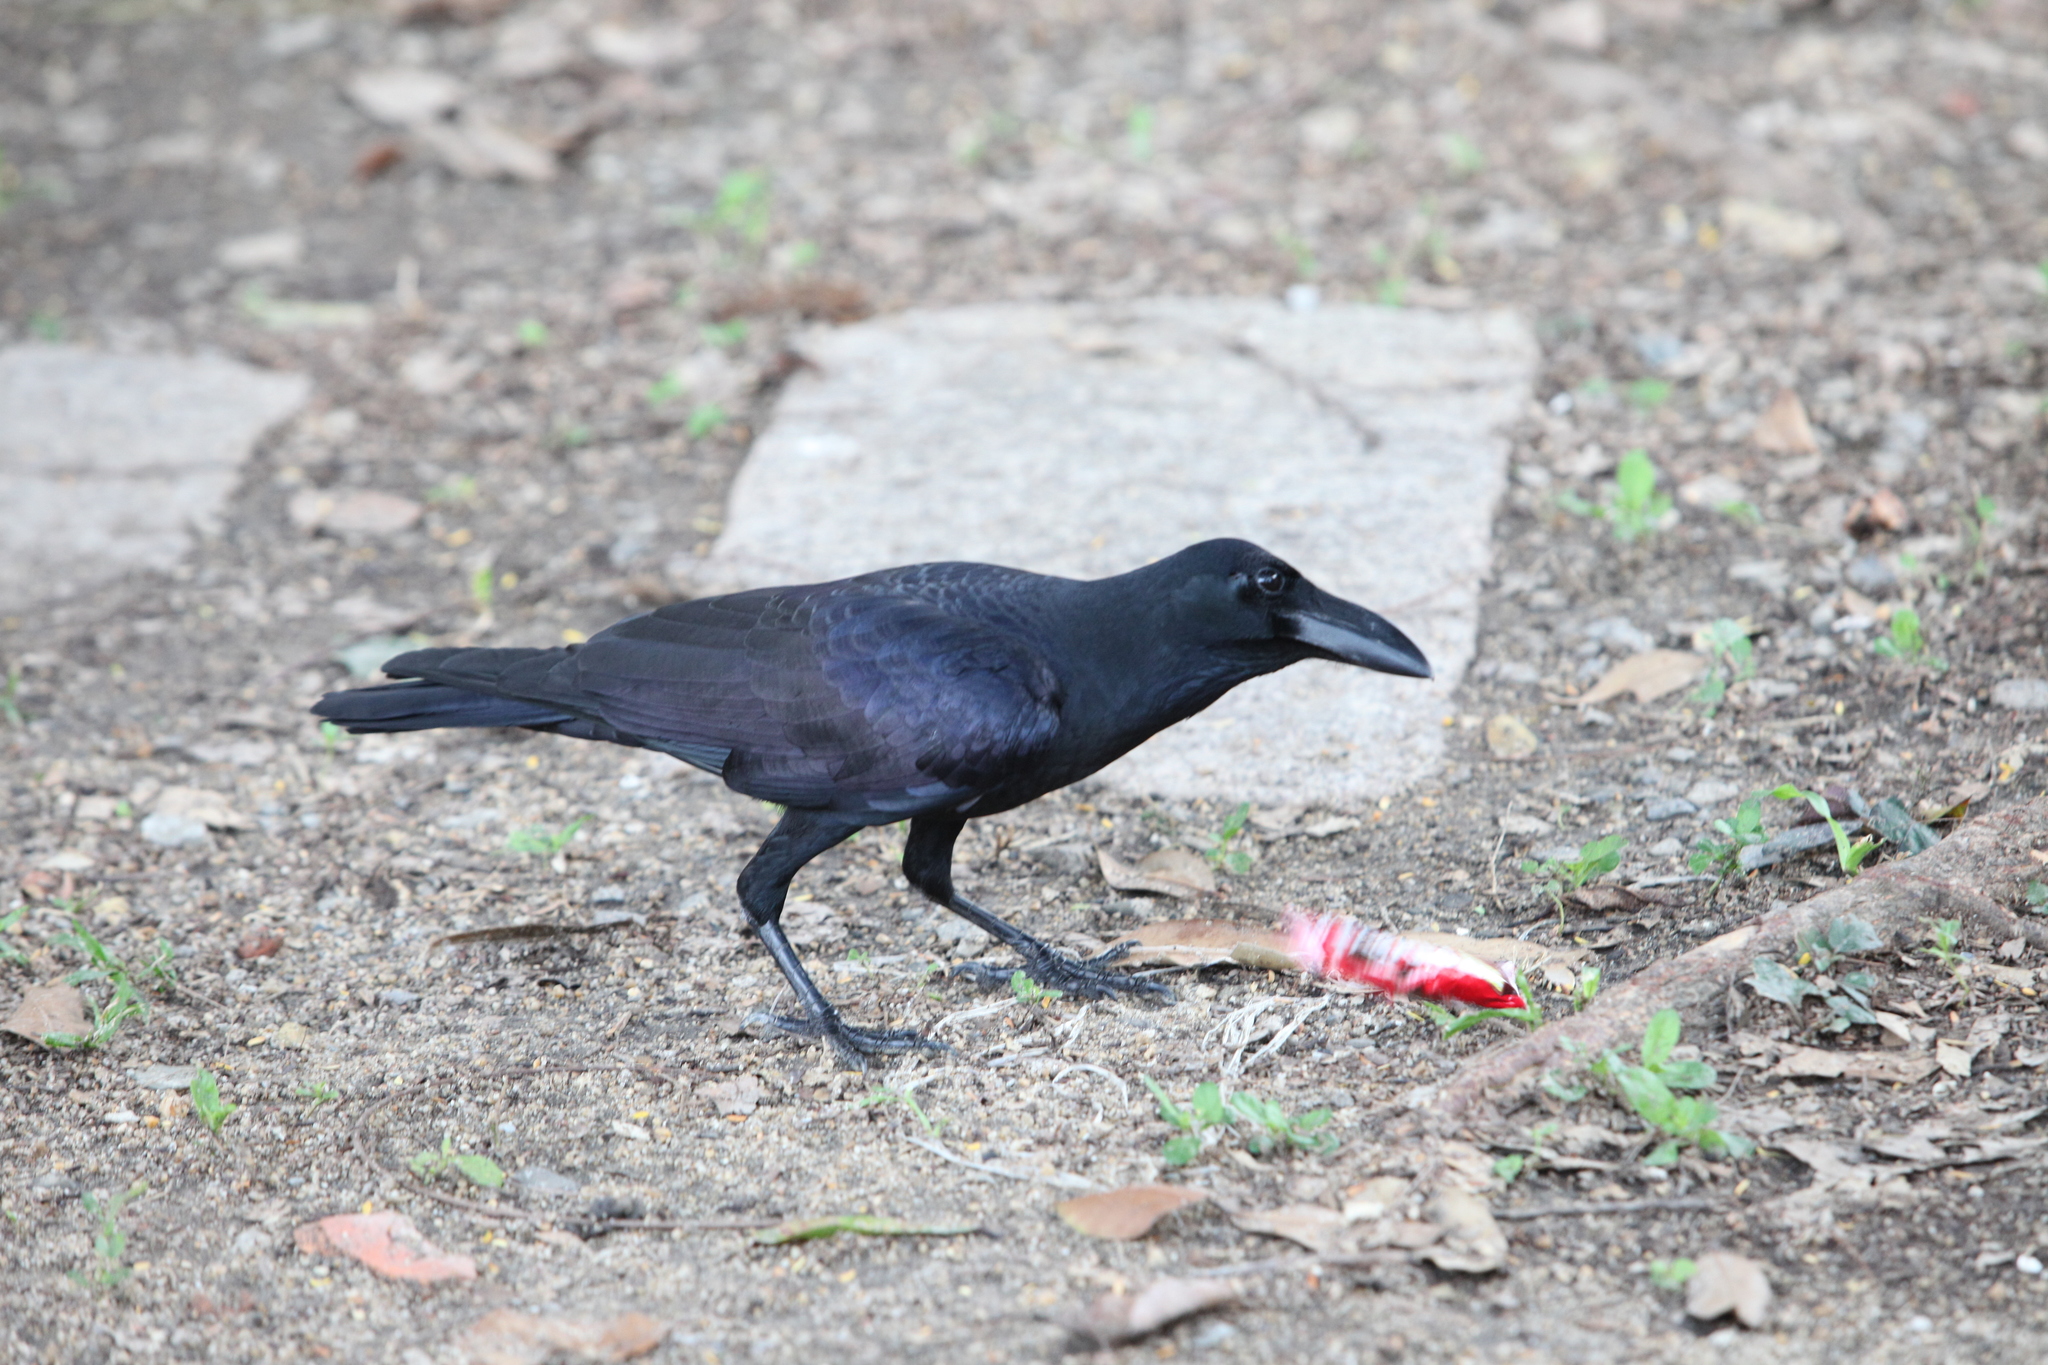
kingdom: Animalia
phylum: Chordata
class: Aves
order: Passeriformes
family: Corvidae
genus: Corvus
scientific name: Corvus macrorhynchos
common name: Large-billed crow
